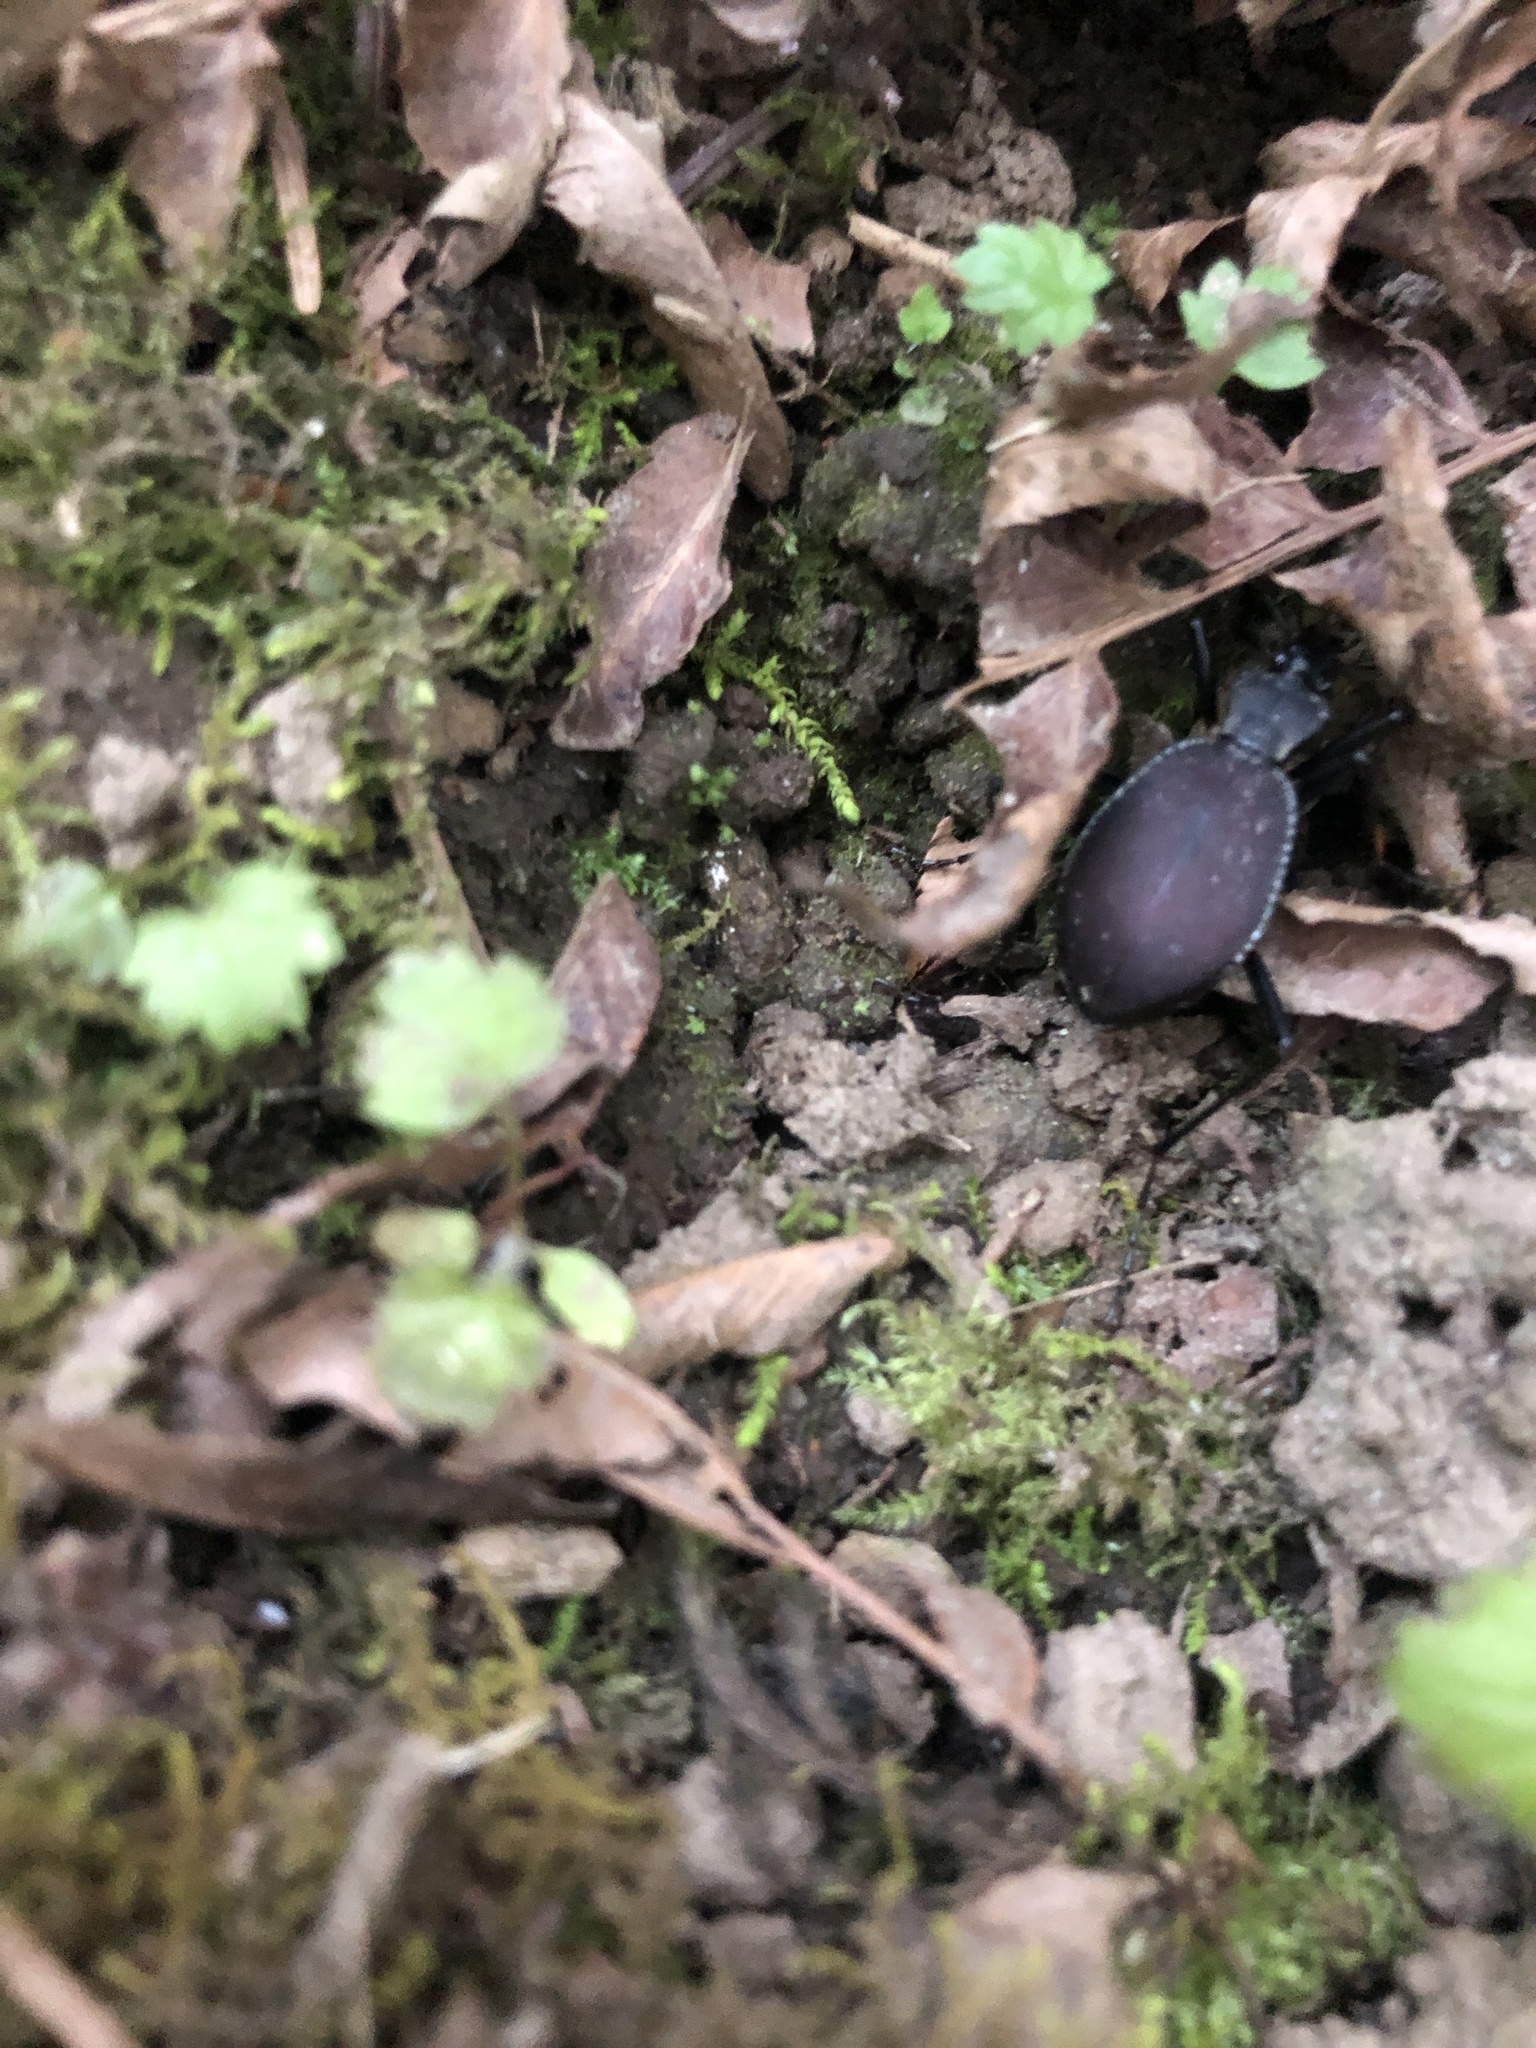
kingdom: Animalia
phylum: Arthropoda
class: Insecta
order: Coleoptera
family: Carabidae
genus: Scaphinotus
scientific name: Scaphinotus angusticollis
